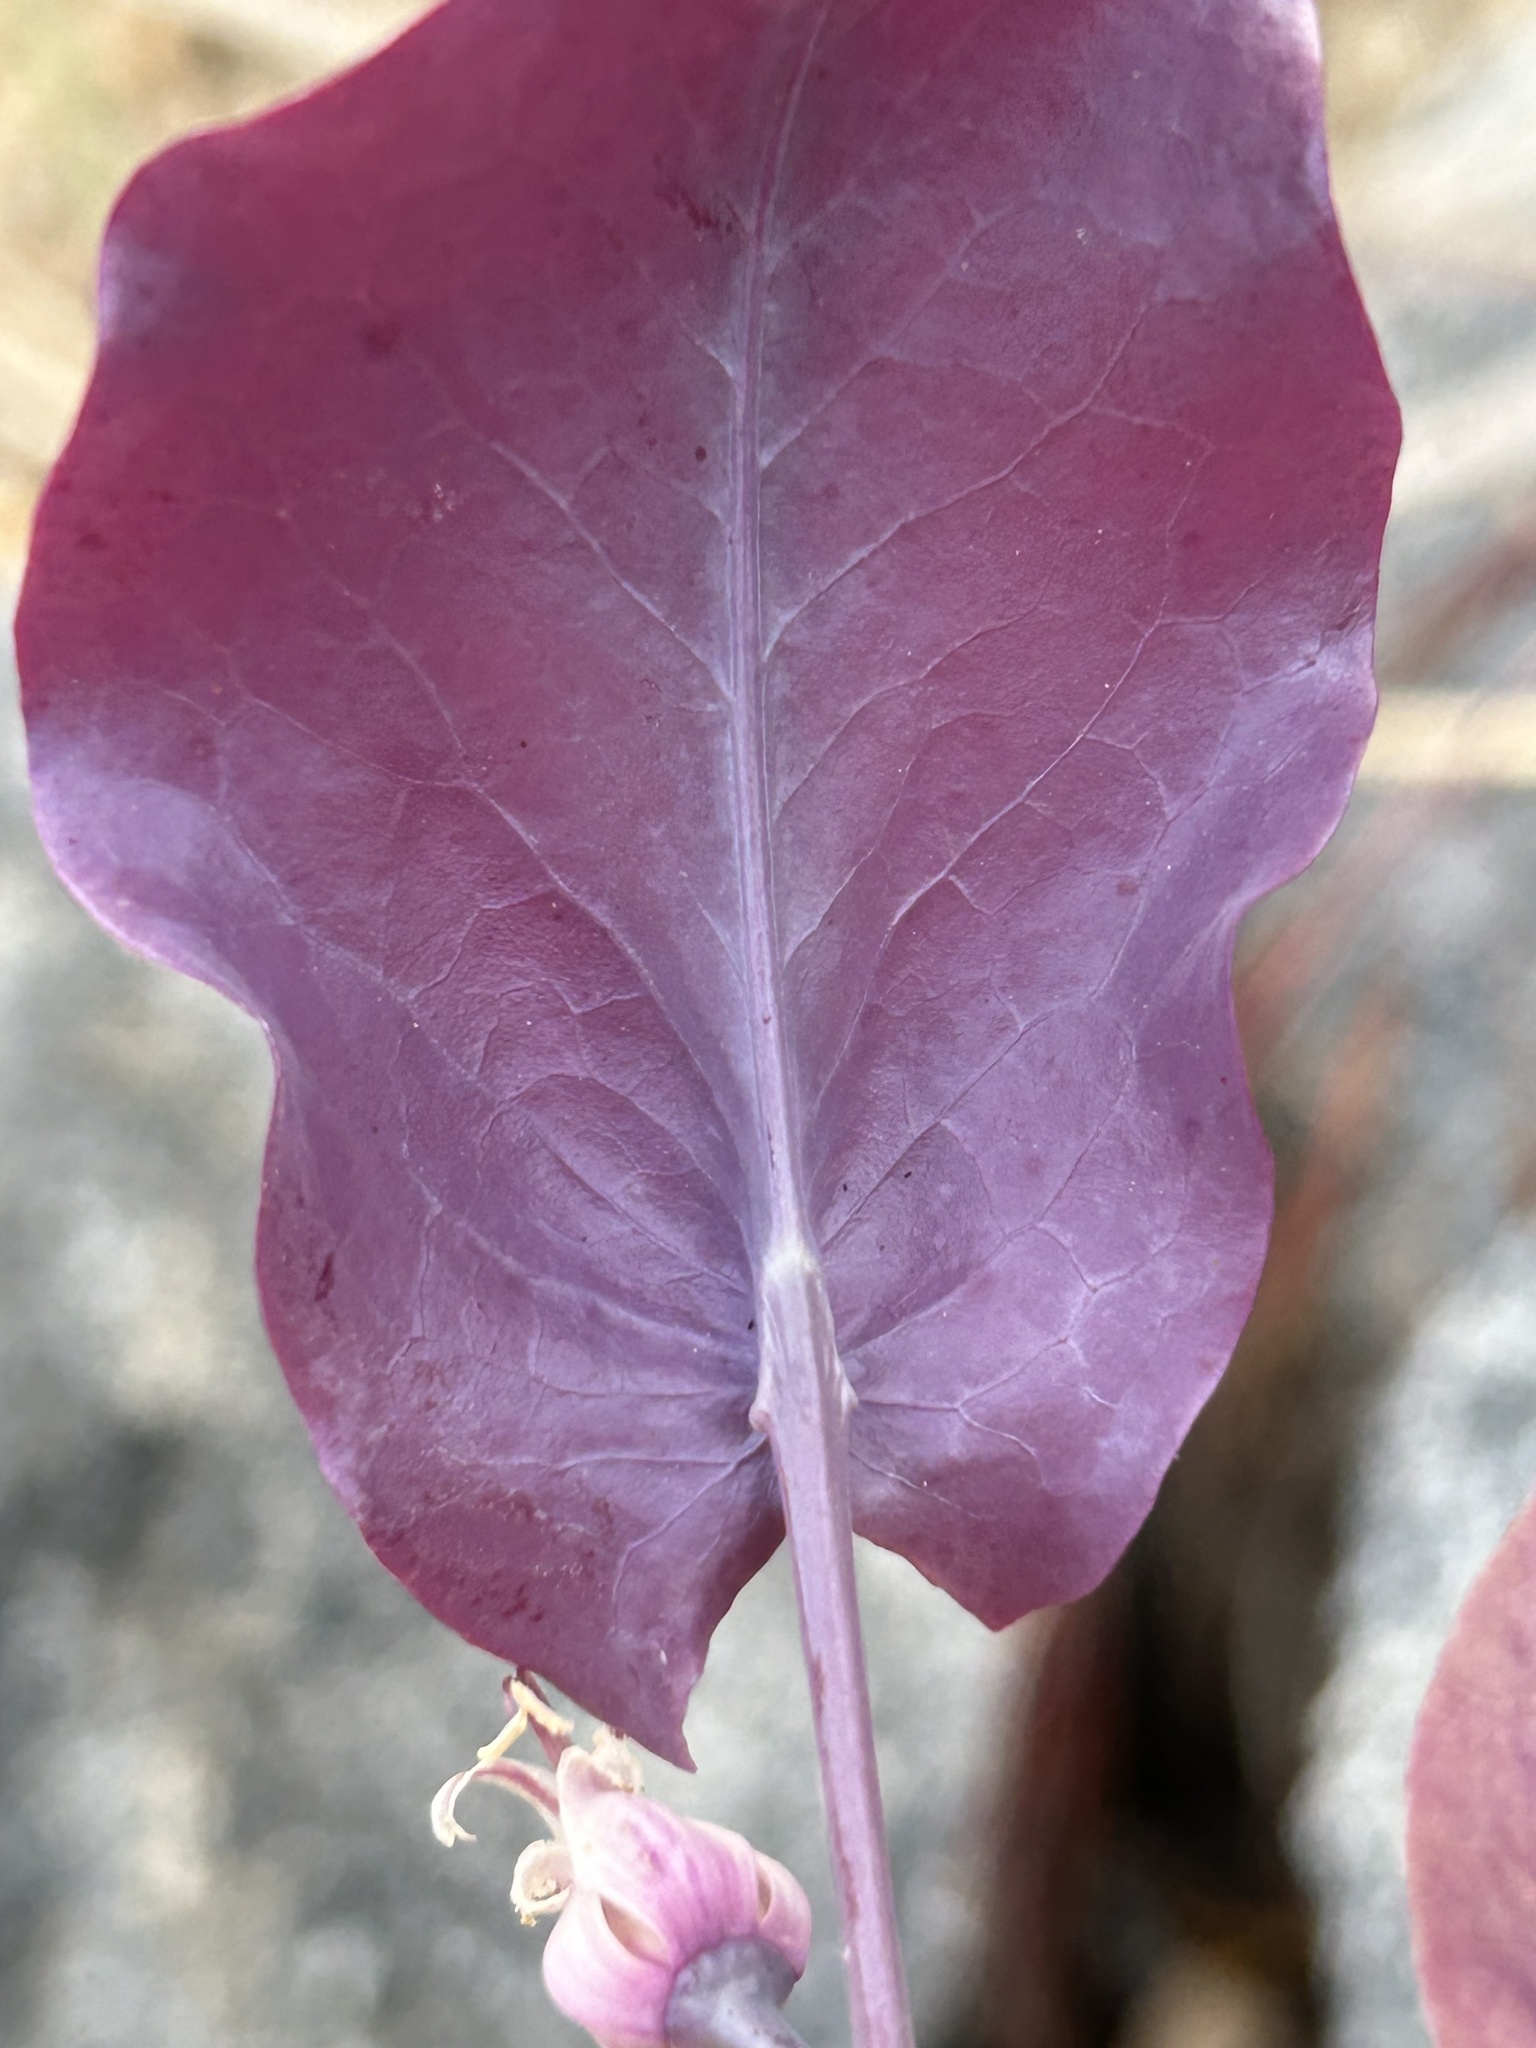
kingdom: Plantae
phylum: Tracheophyta
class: Magnoliopsida
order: Brassicales
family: Brassicaceae
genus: Streptanthus
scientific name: Streptanthus farnsworthianus
